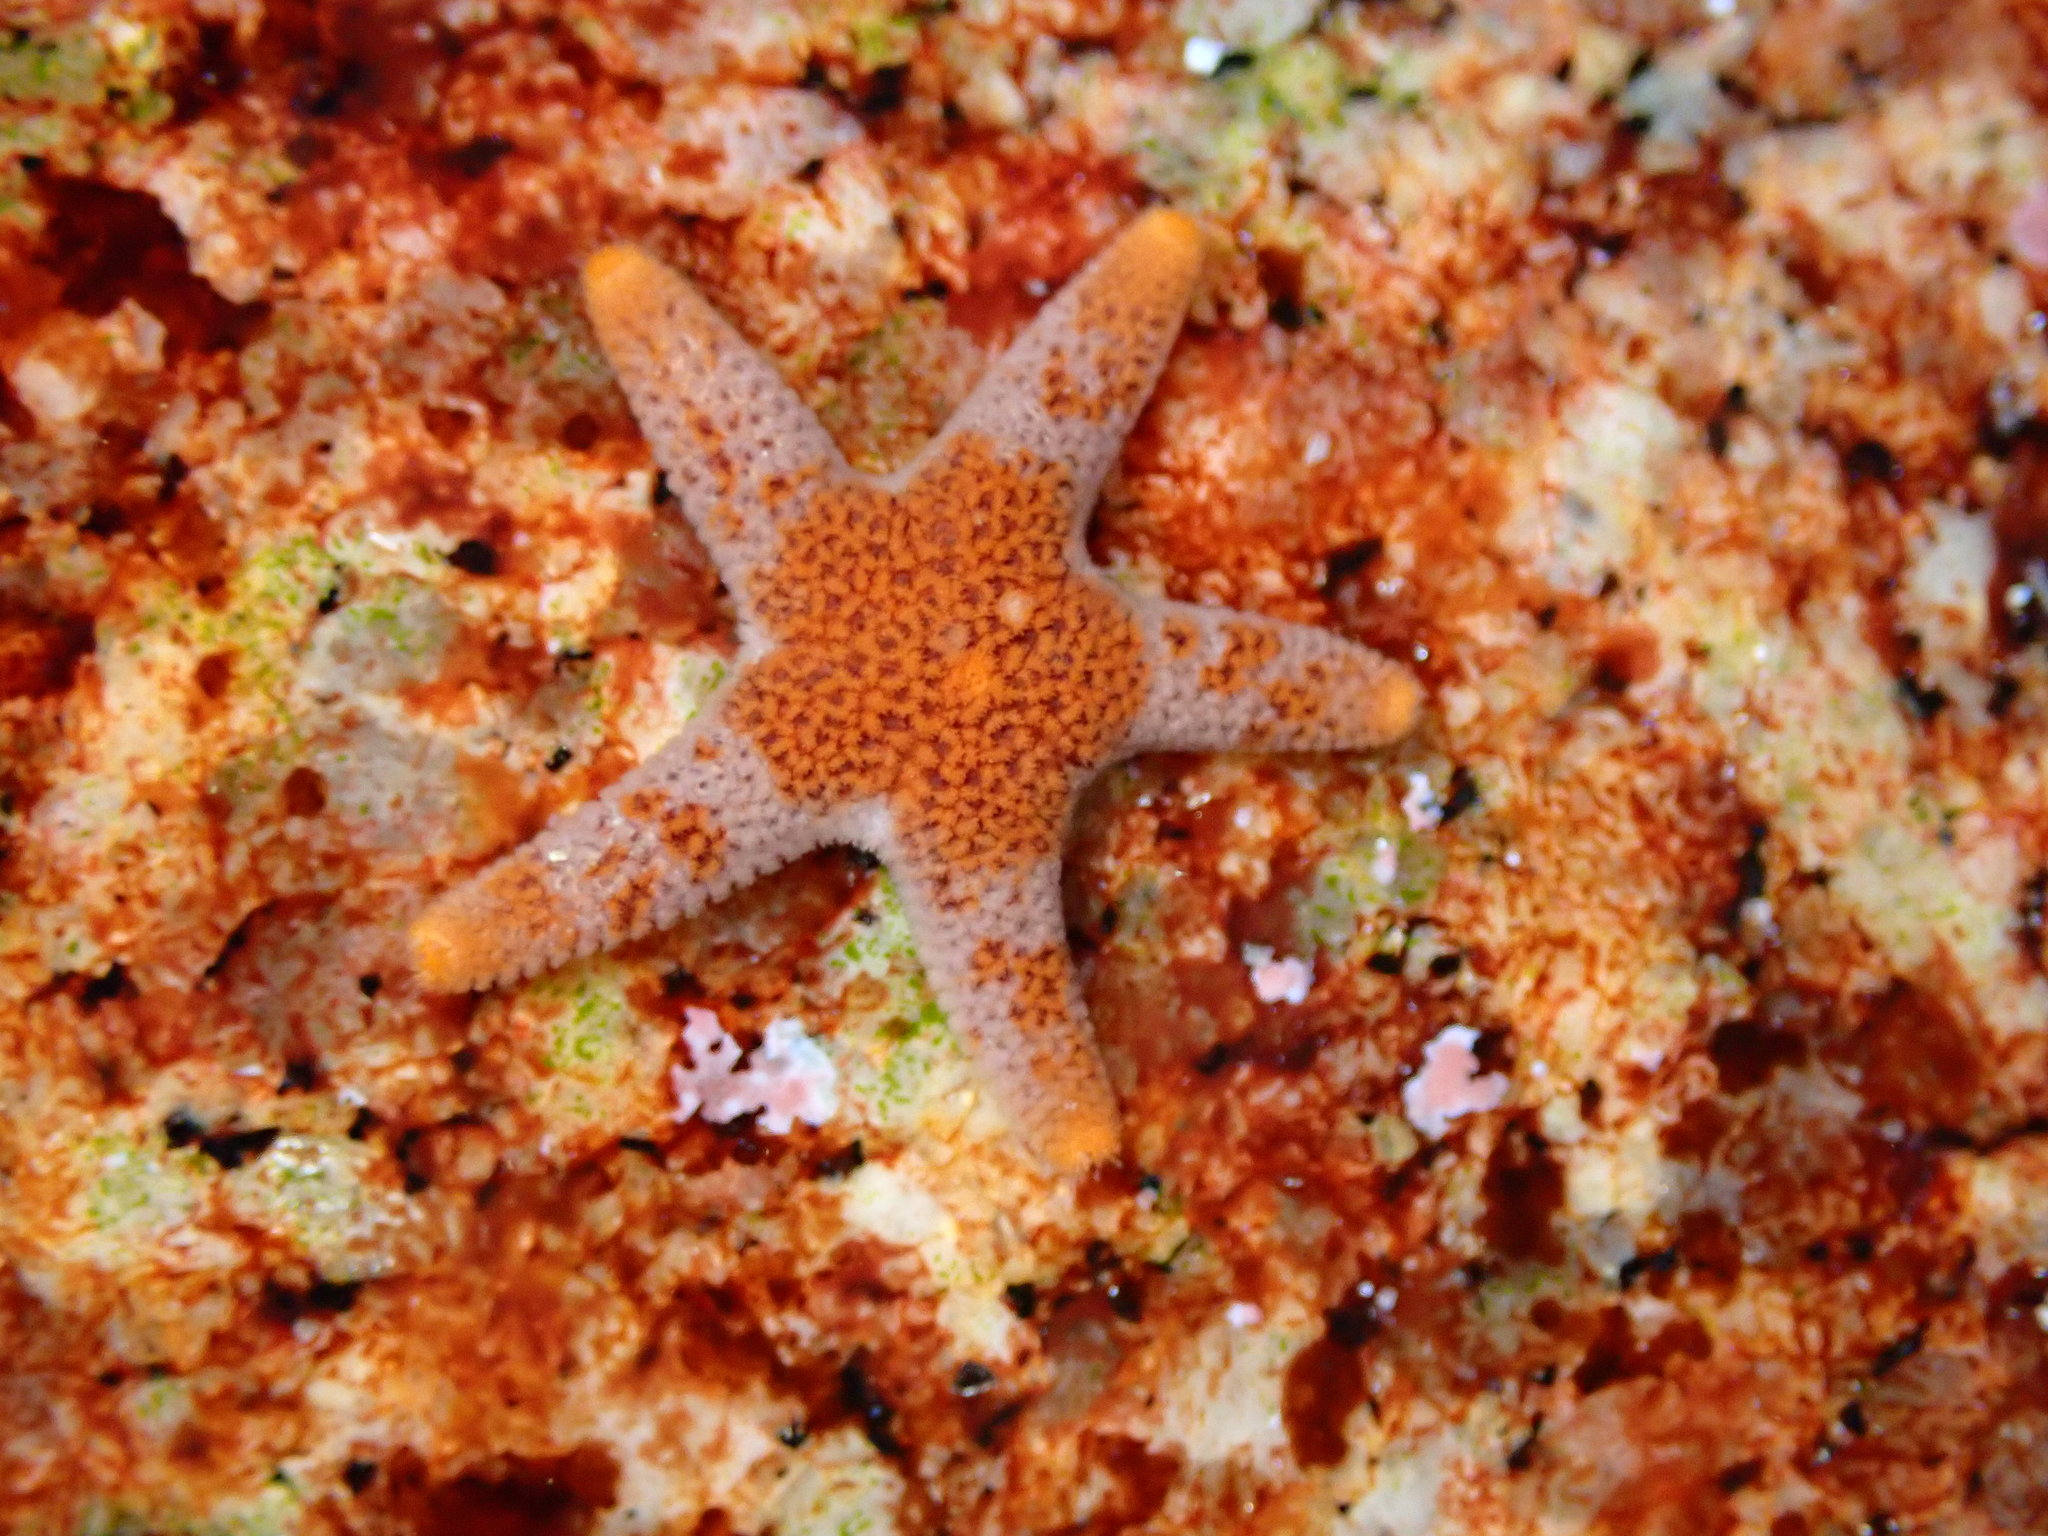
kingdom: Animalia
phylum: Echinodermata
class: Asteroidea
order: Spinulosida
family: Echinasteridae
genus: Henricia
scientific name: Henricia pumila
